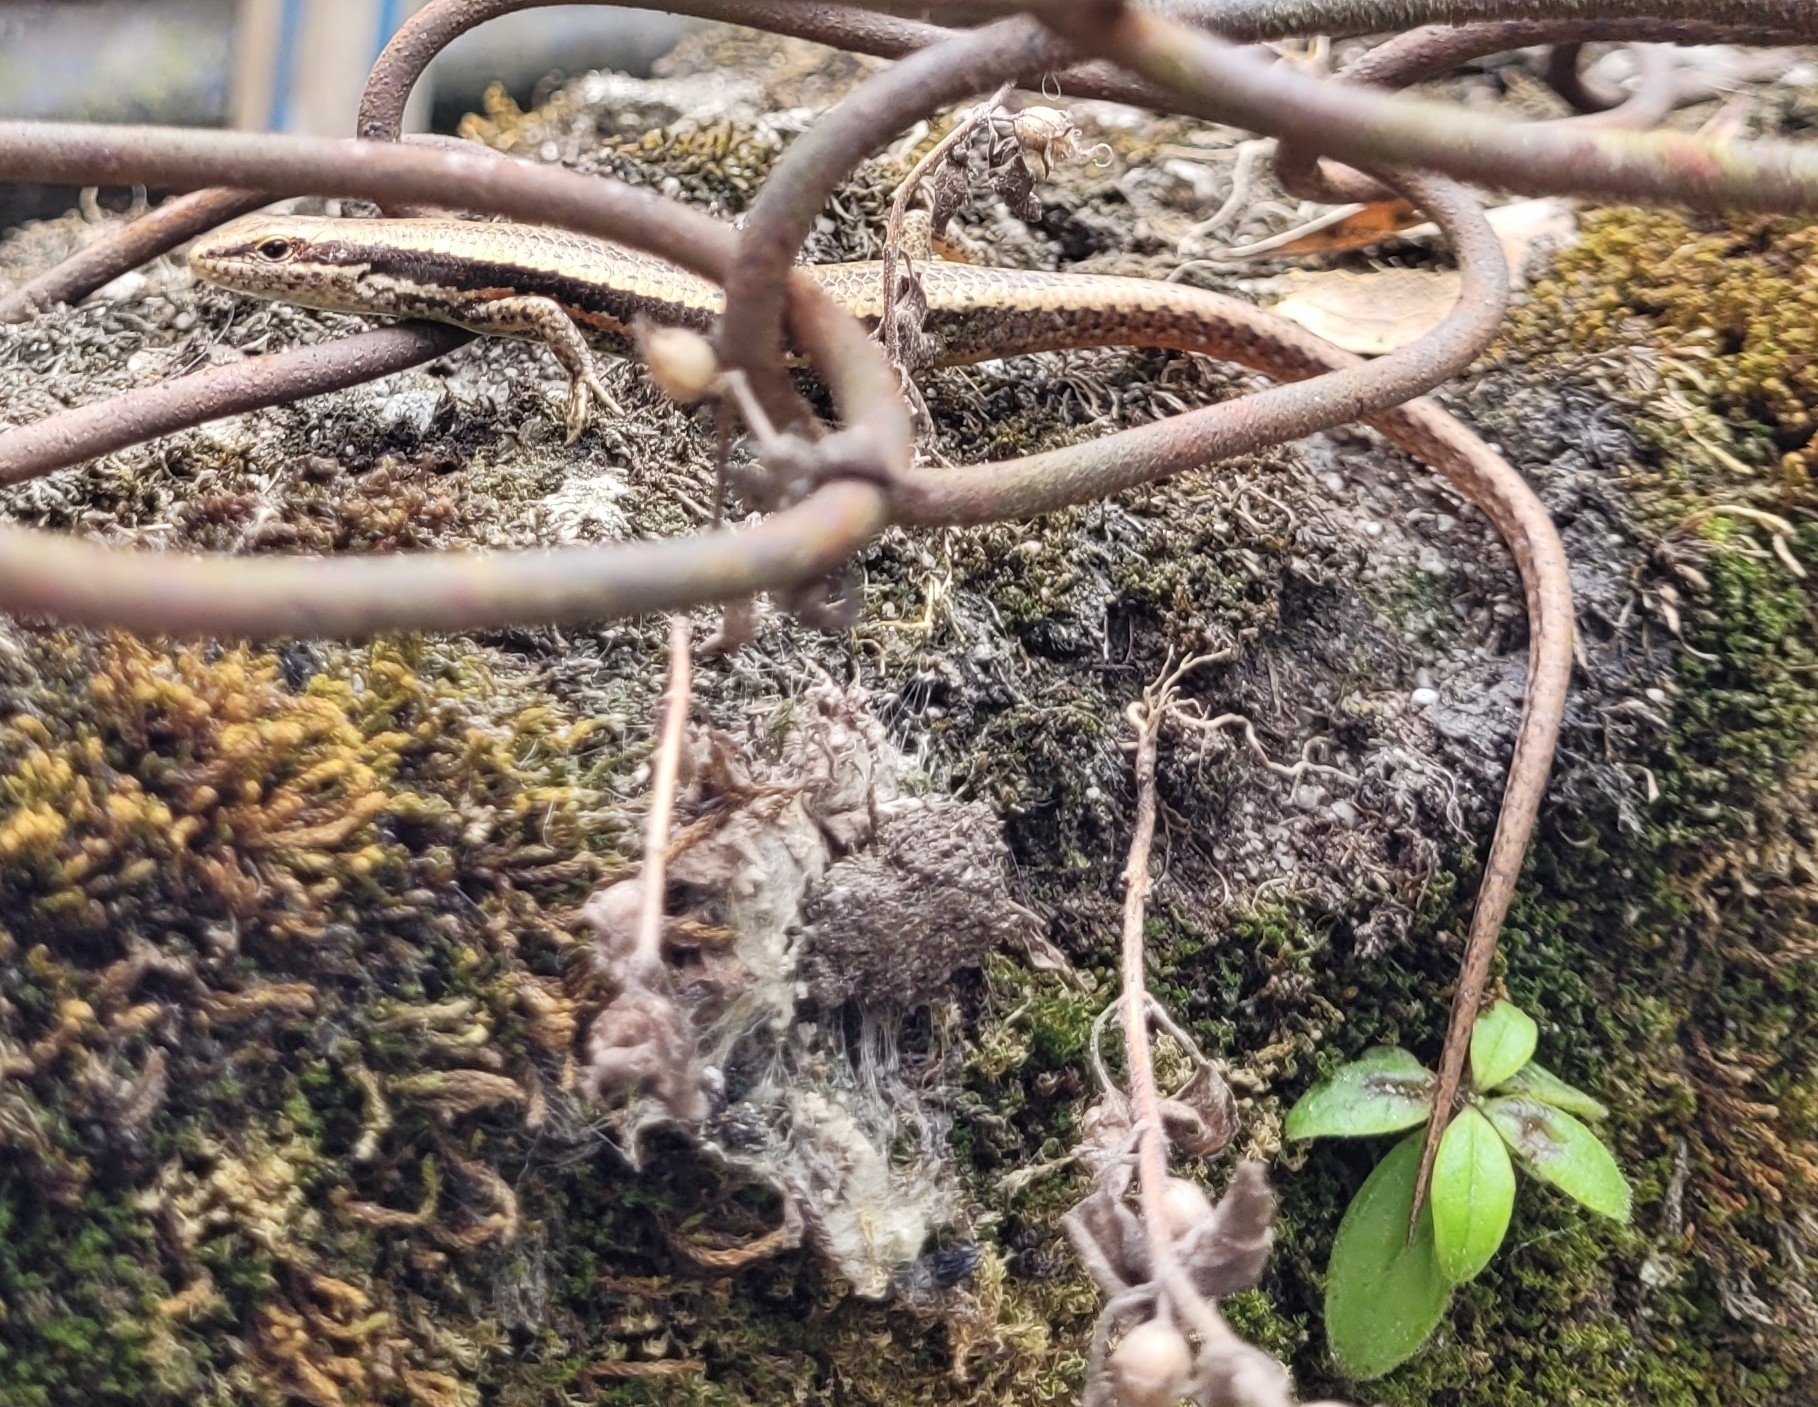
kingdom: Animalia
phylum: Chordata
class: Squamata
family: Scincidae
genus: Sphenomorphus
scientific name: Sphenomorphus maculatus
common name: Maculated forest skink
